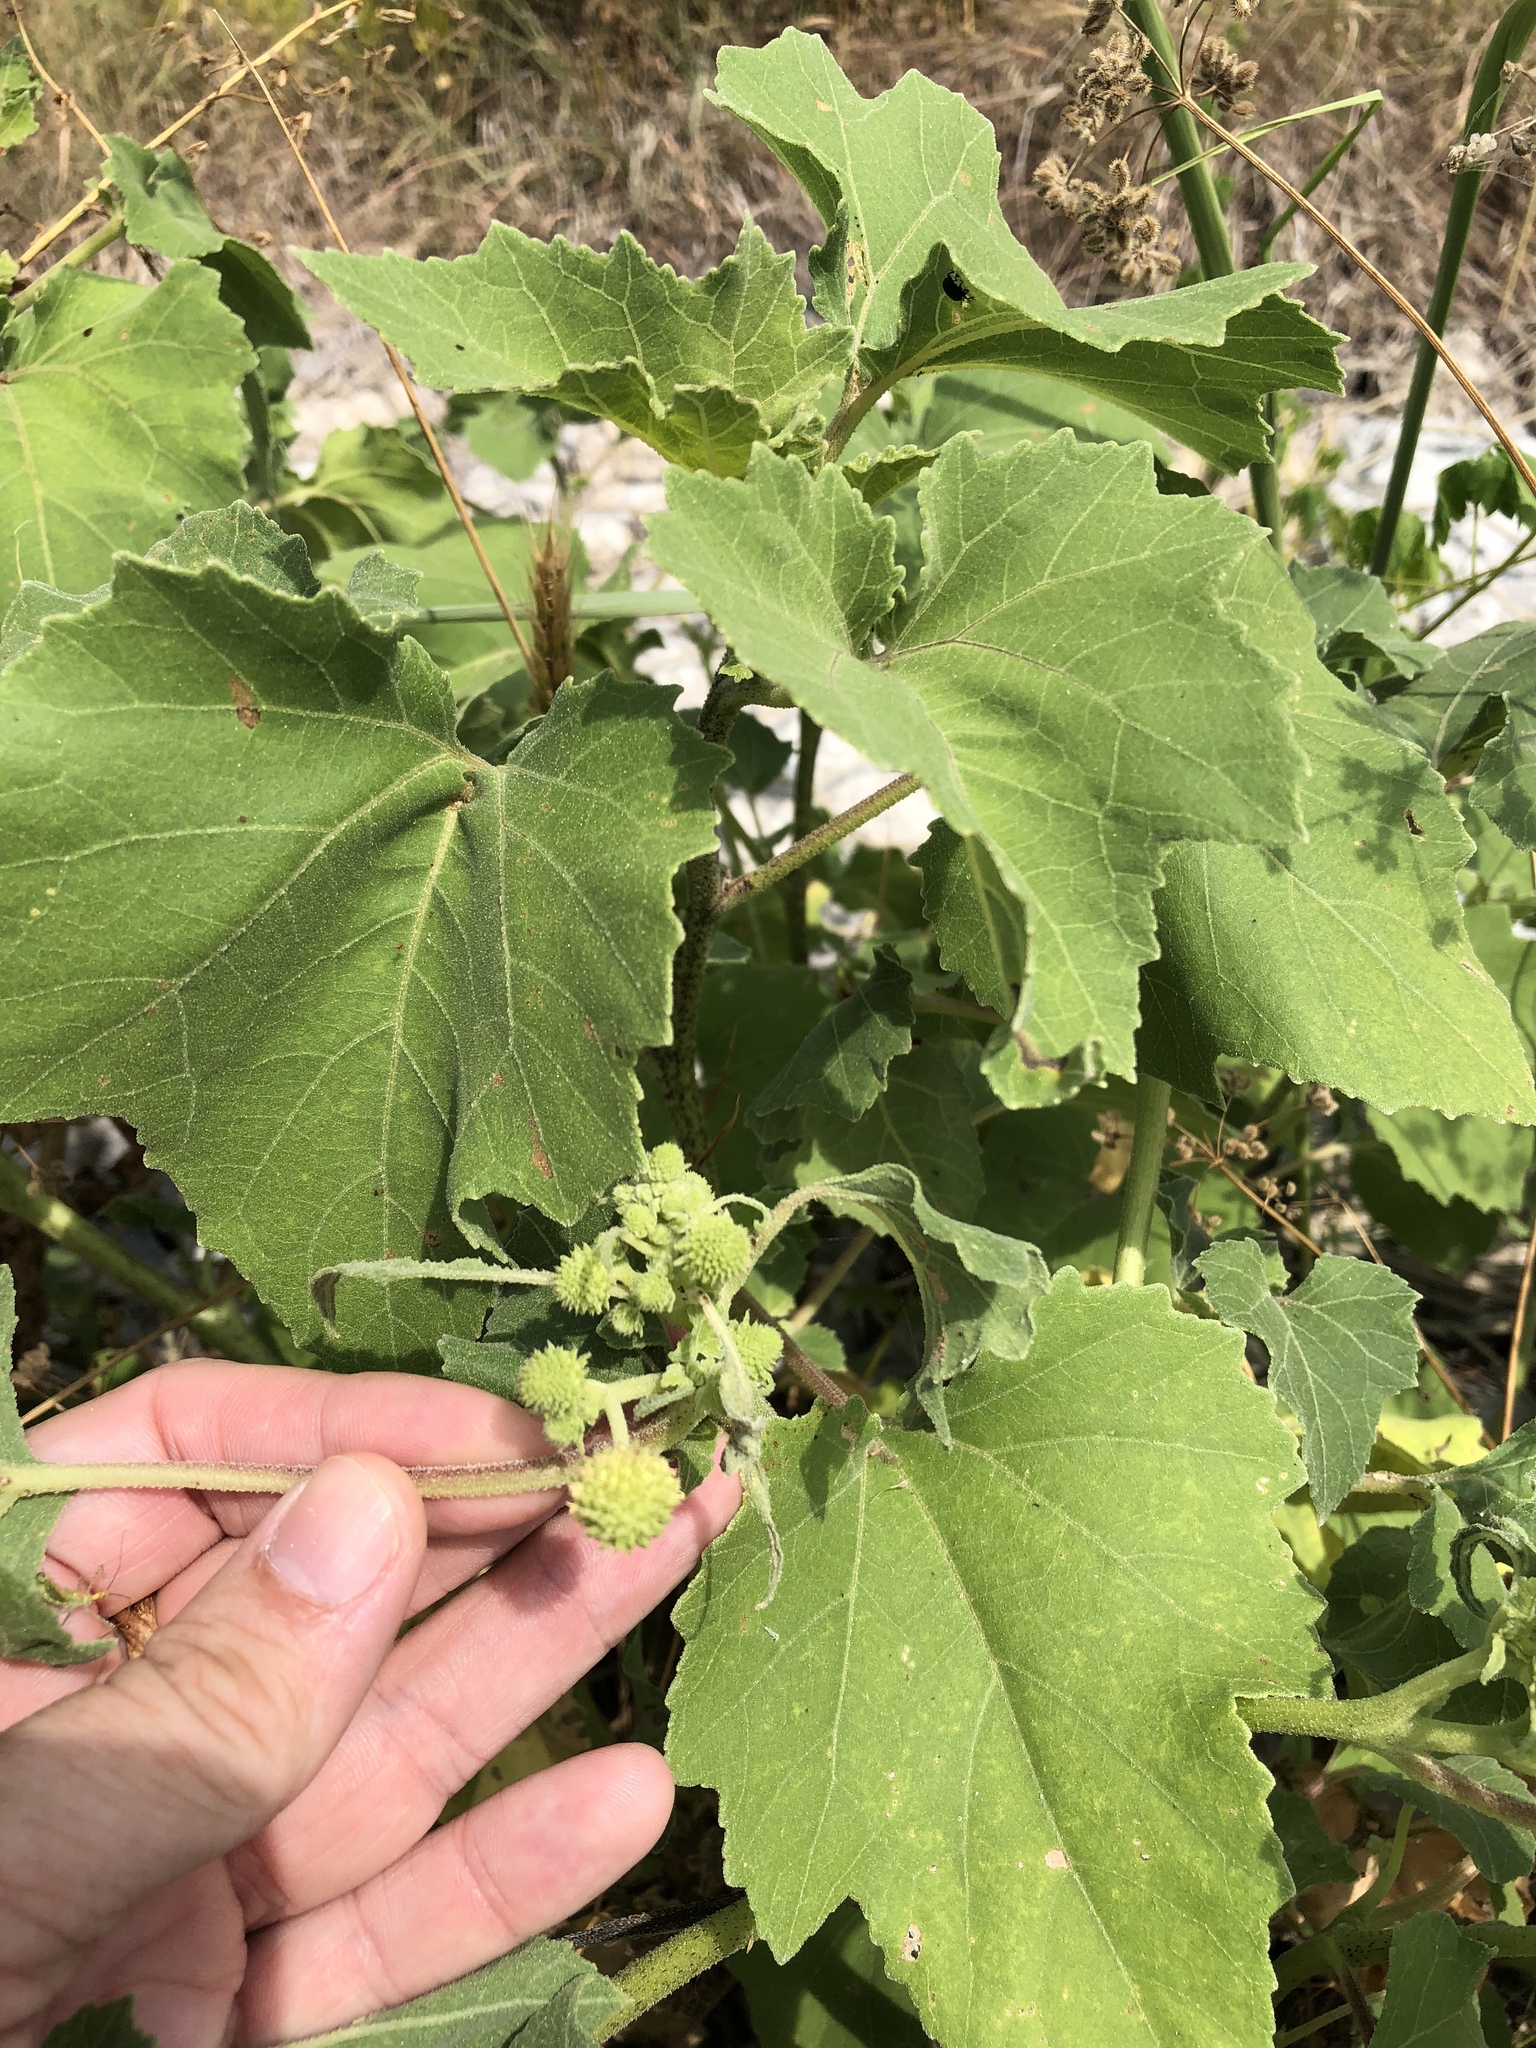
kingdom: Plantae
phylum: Tracheophyta
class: Magnoliopsida
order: Asterales
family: Asteraceae
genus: Xanthium
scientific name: Xanthium strumarium
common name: Rough cocklebur
